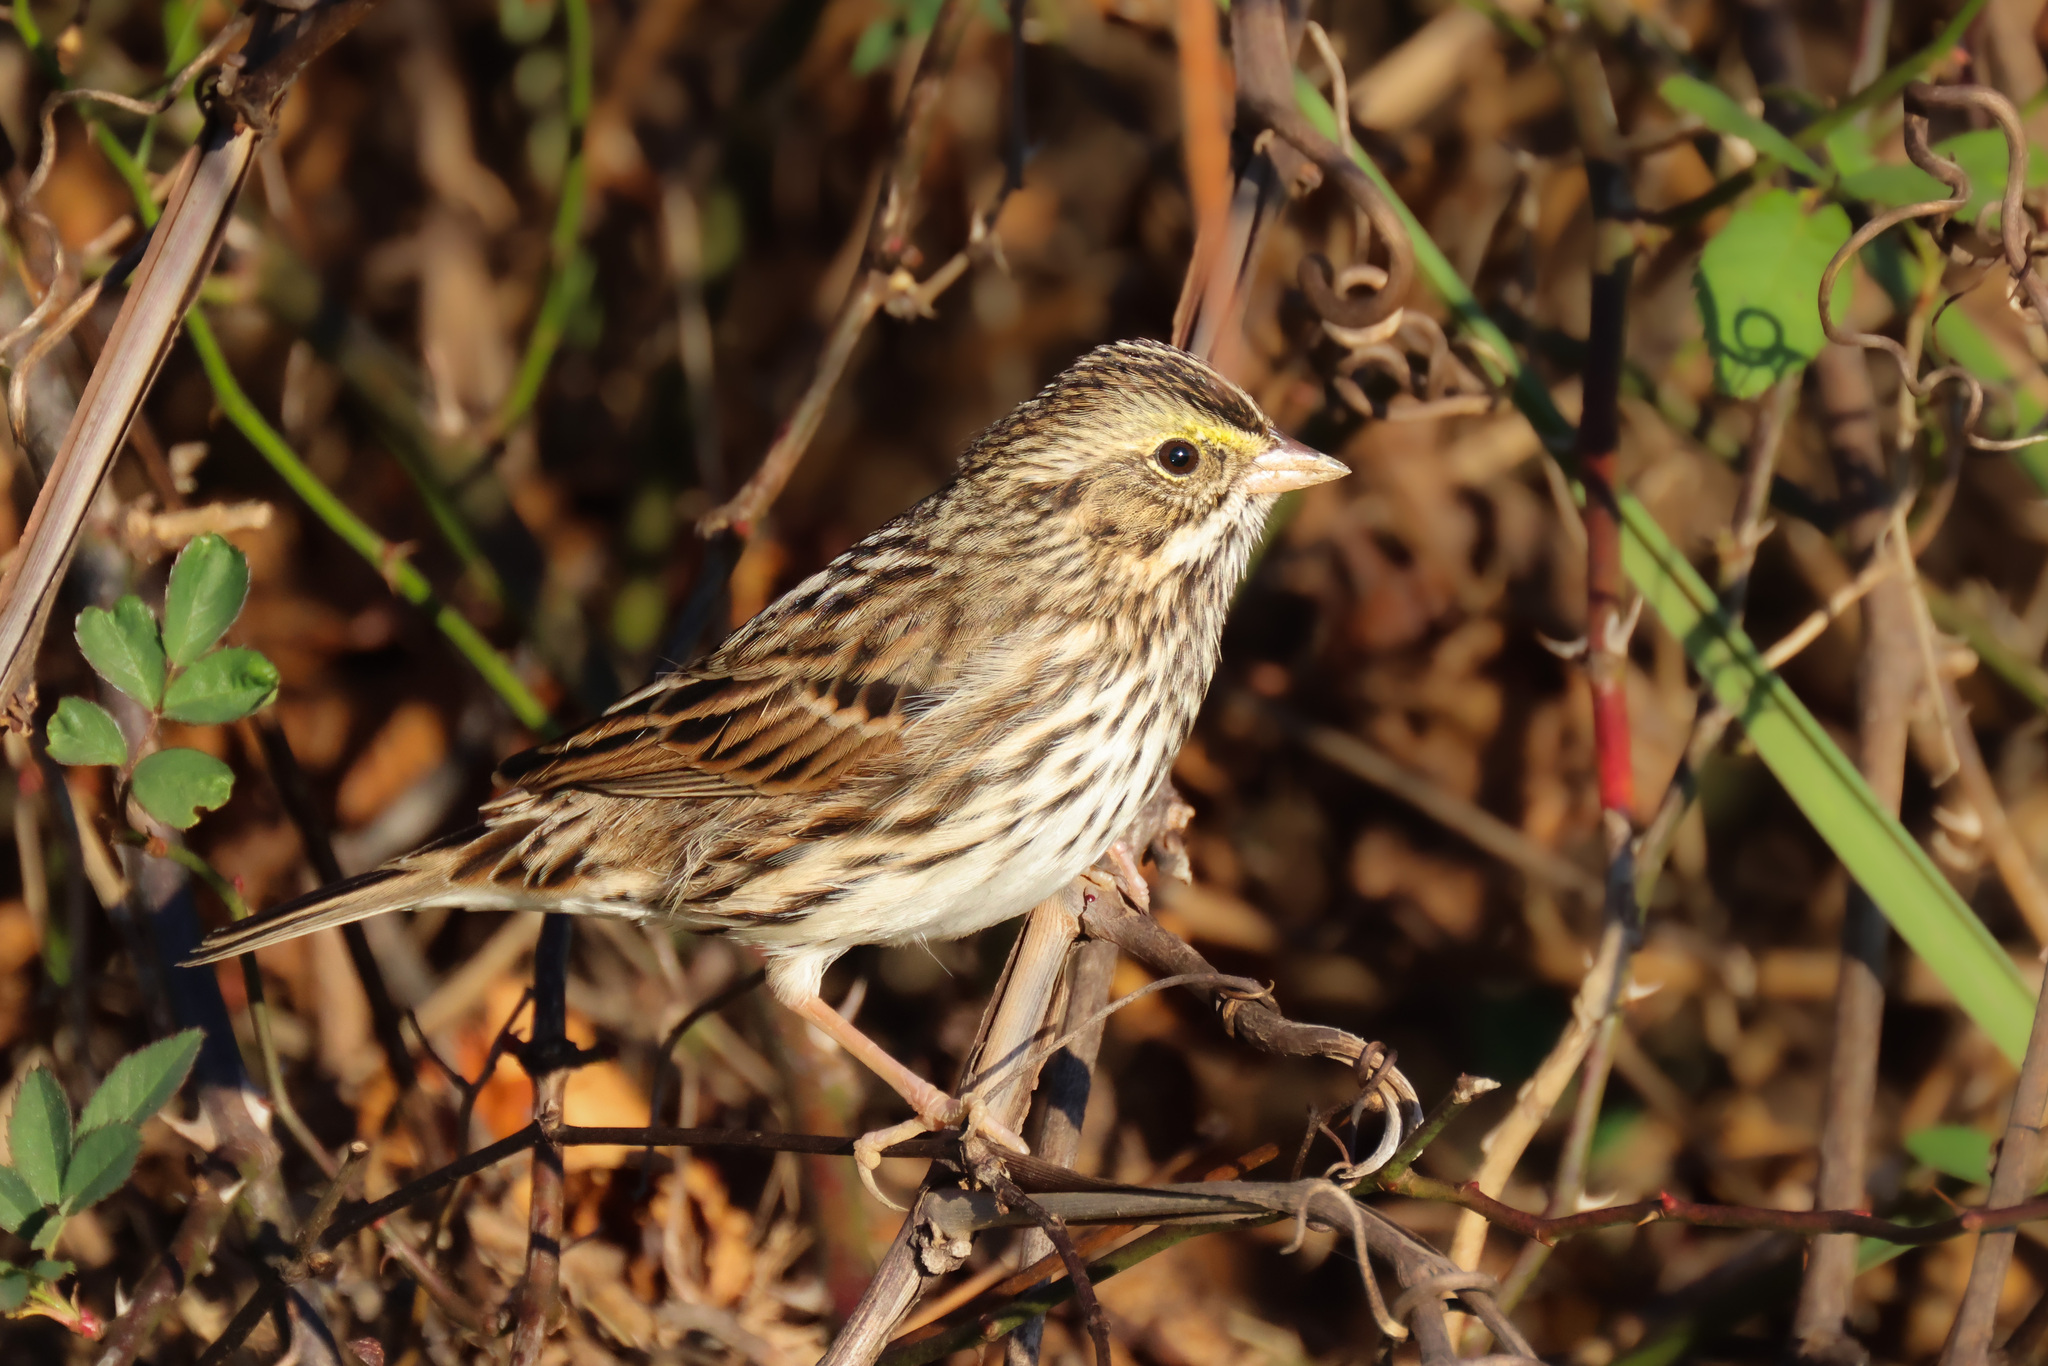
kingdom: Animalia
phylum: Chordata
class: Aves
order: Passeriformes
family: Passerellidae
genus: Passerculus
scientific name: Passerculus sandwichensis
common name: Savannah sparrow
